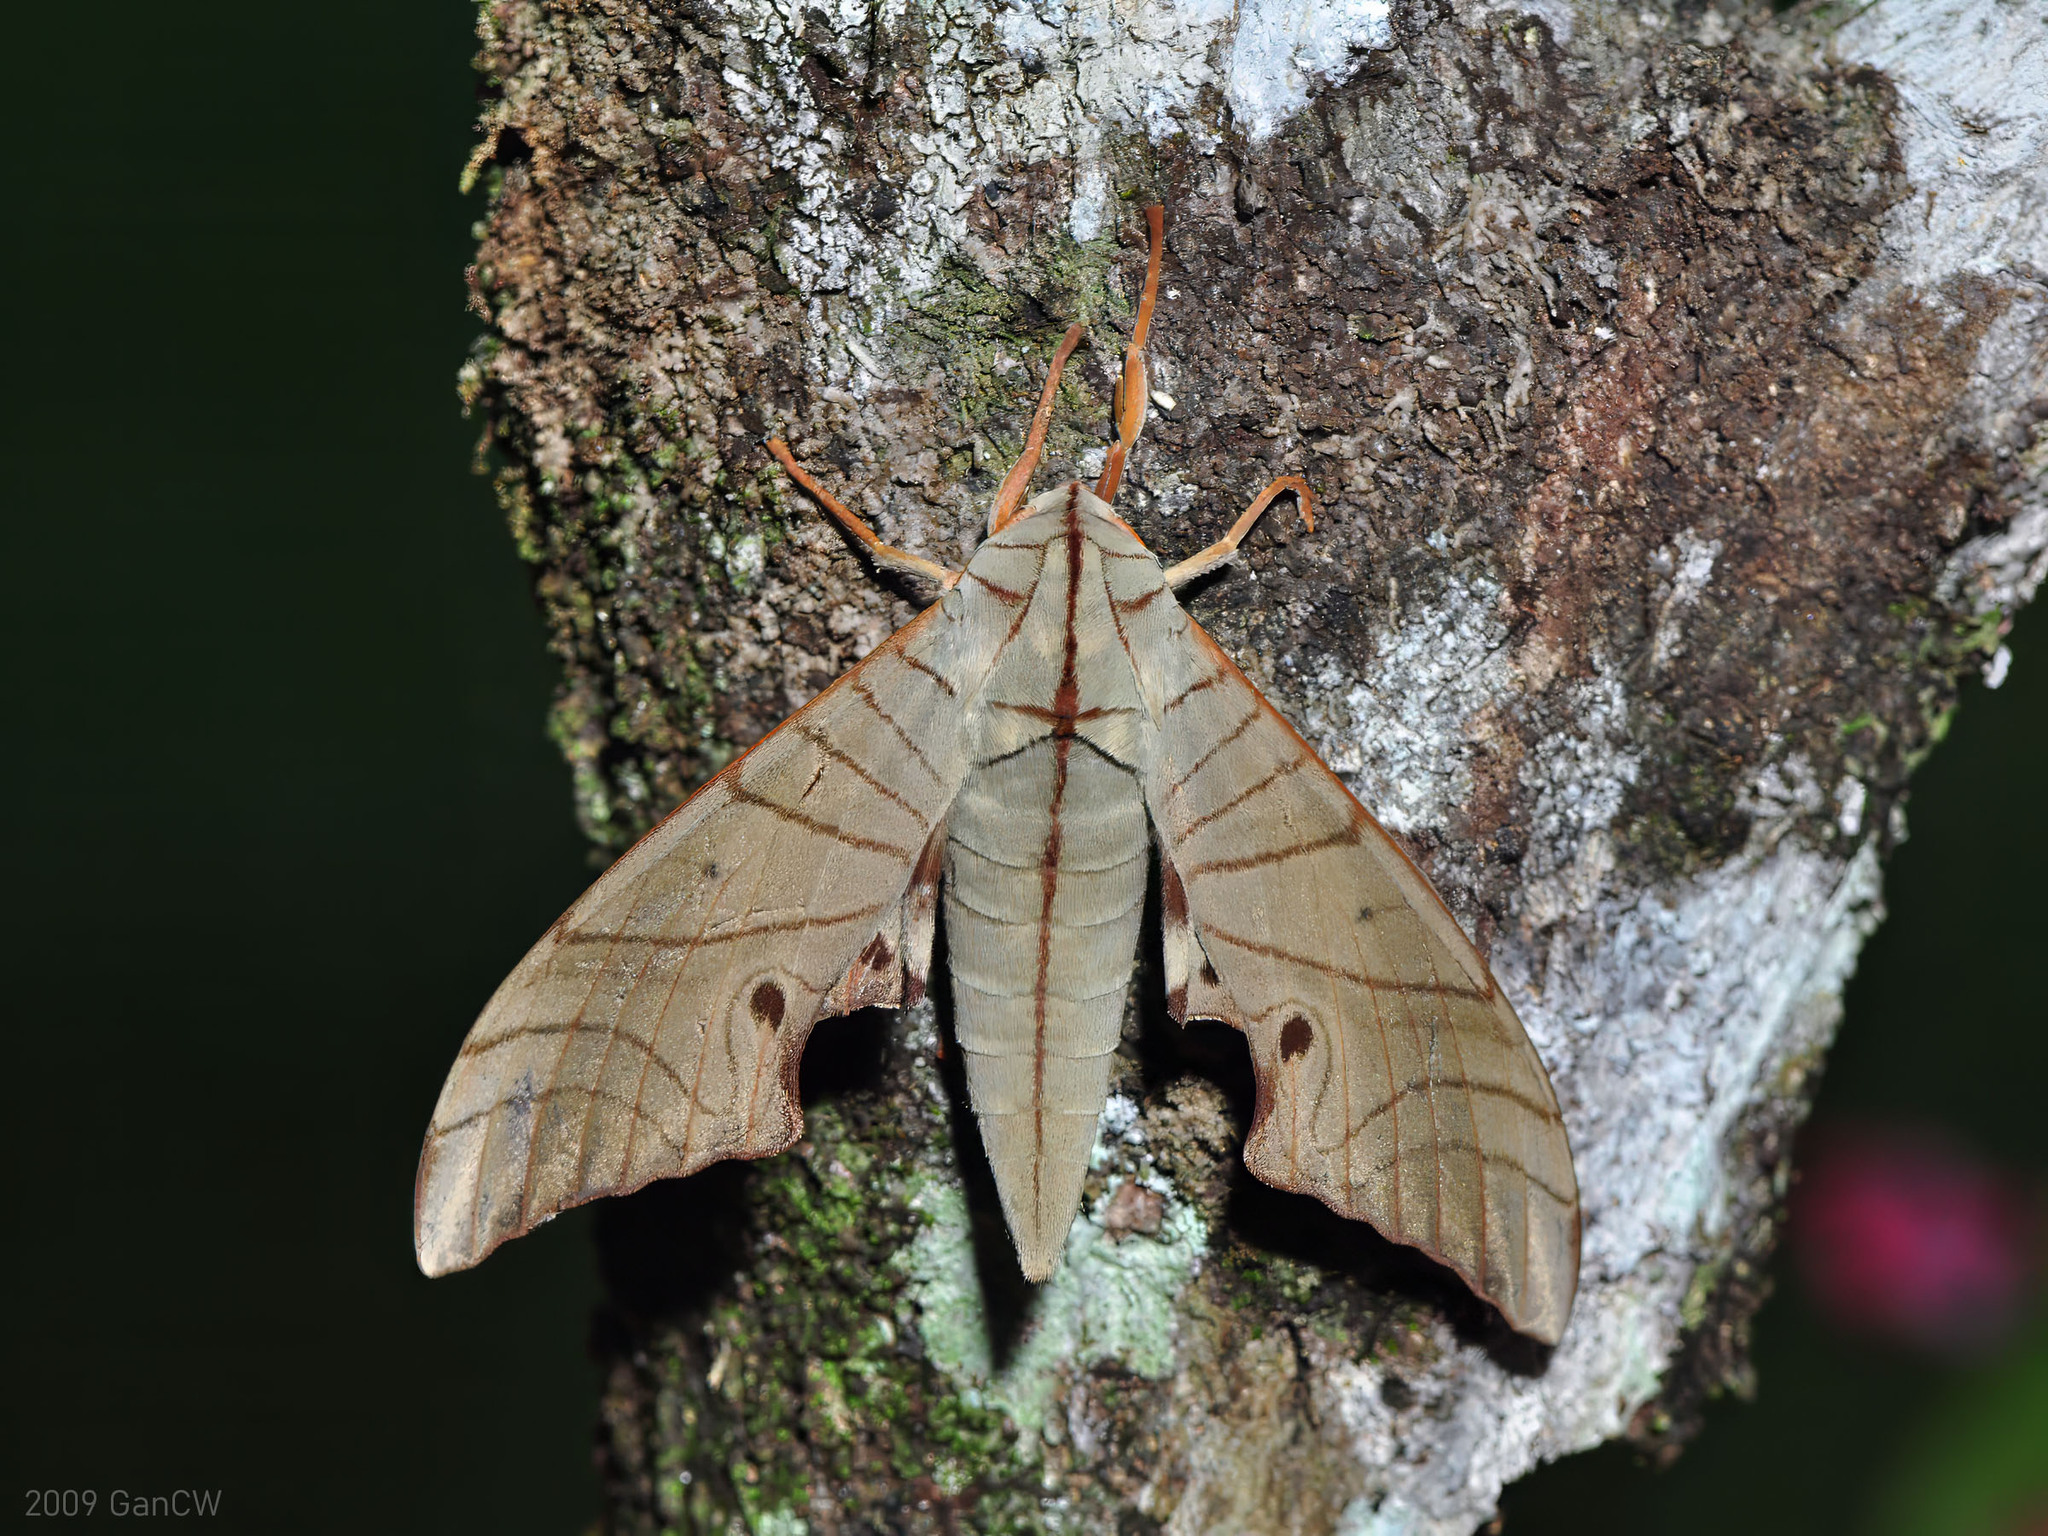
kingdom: Animalia
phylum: Arthropoda
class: Insecta
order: Lepidoptera
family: Sphingidae
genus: Marumba
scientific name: Marumba juvencus
